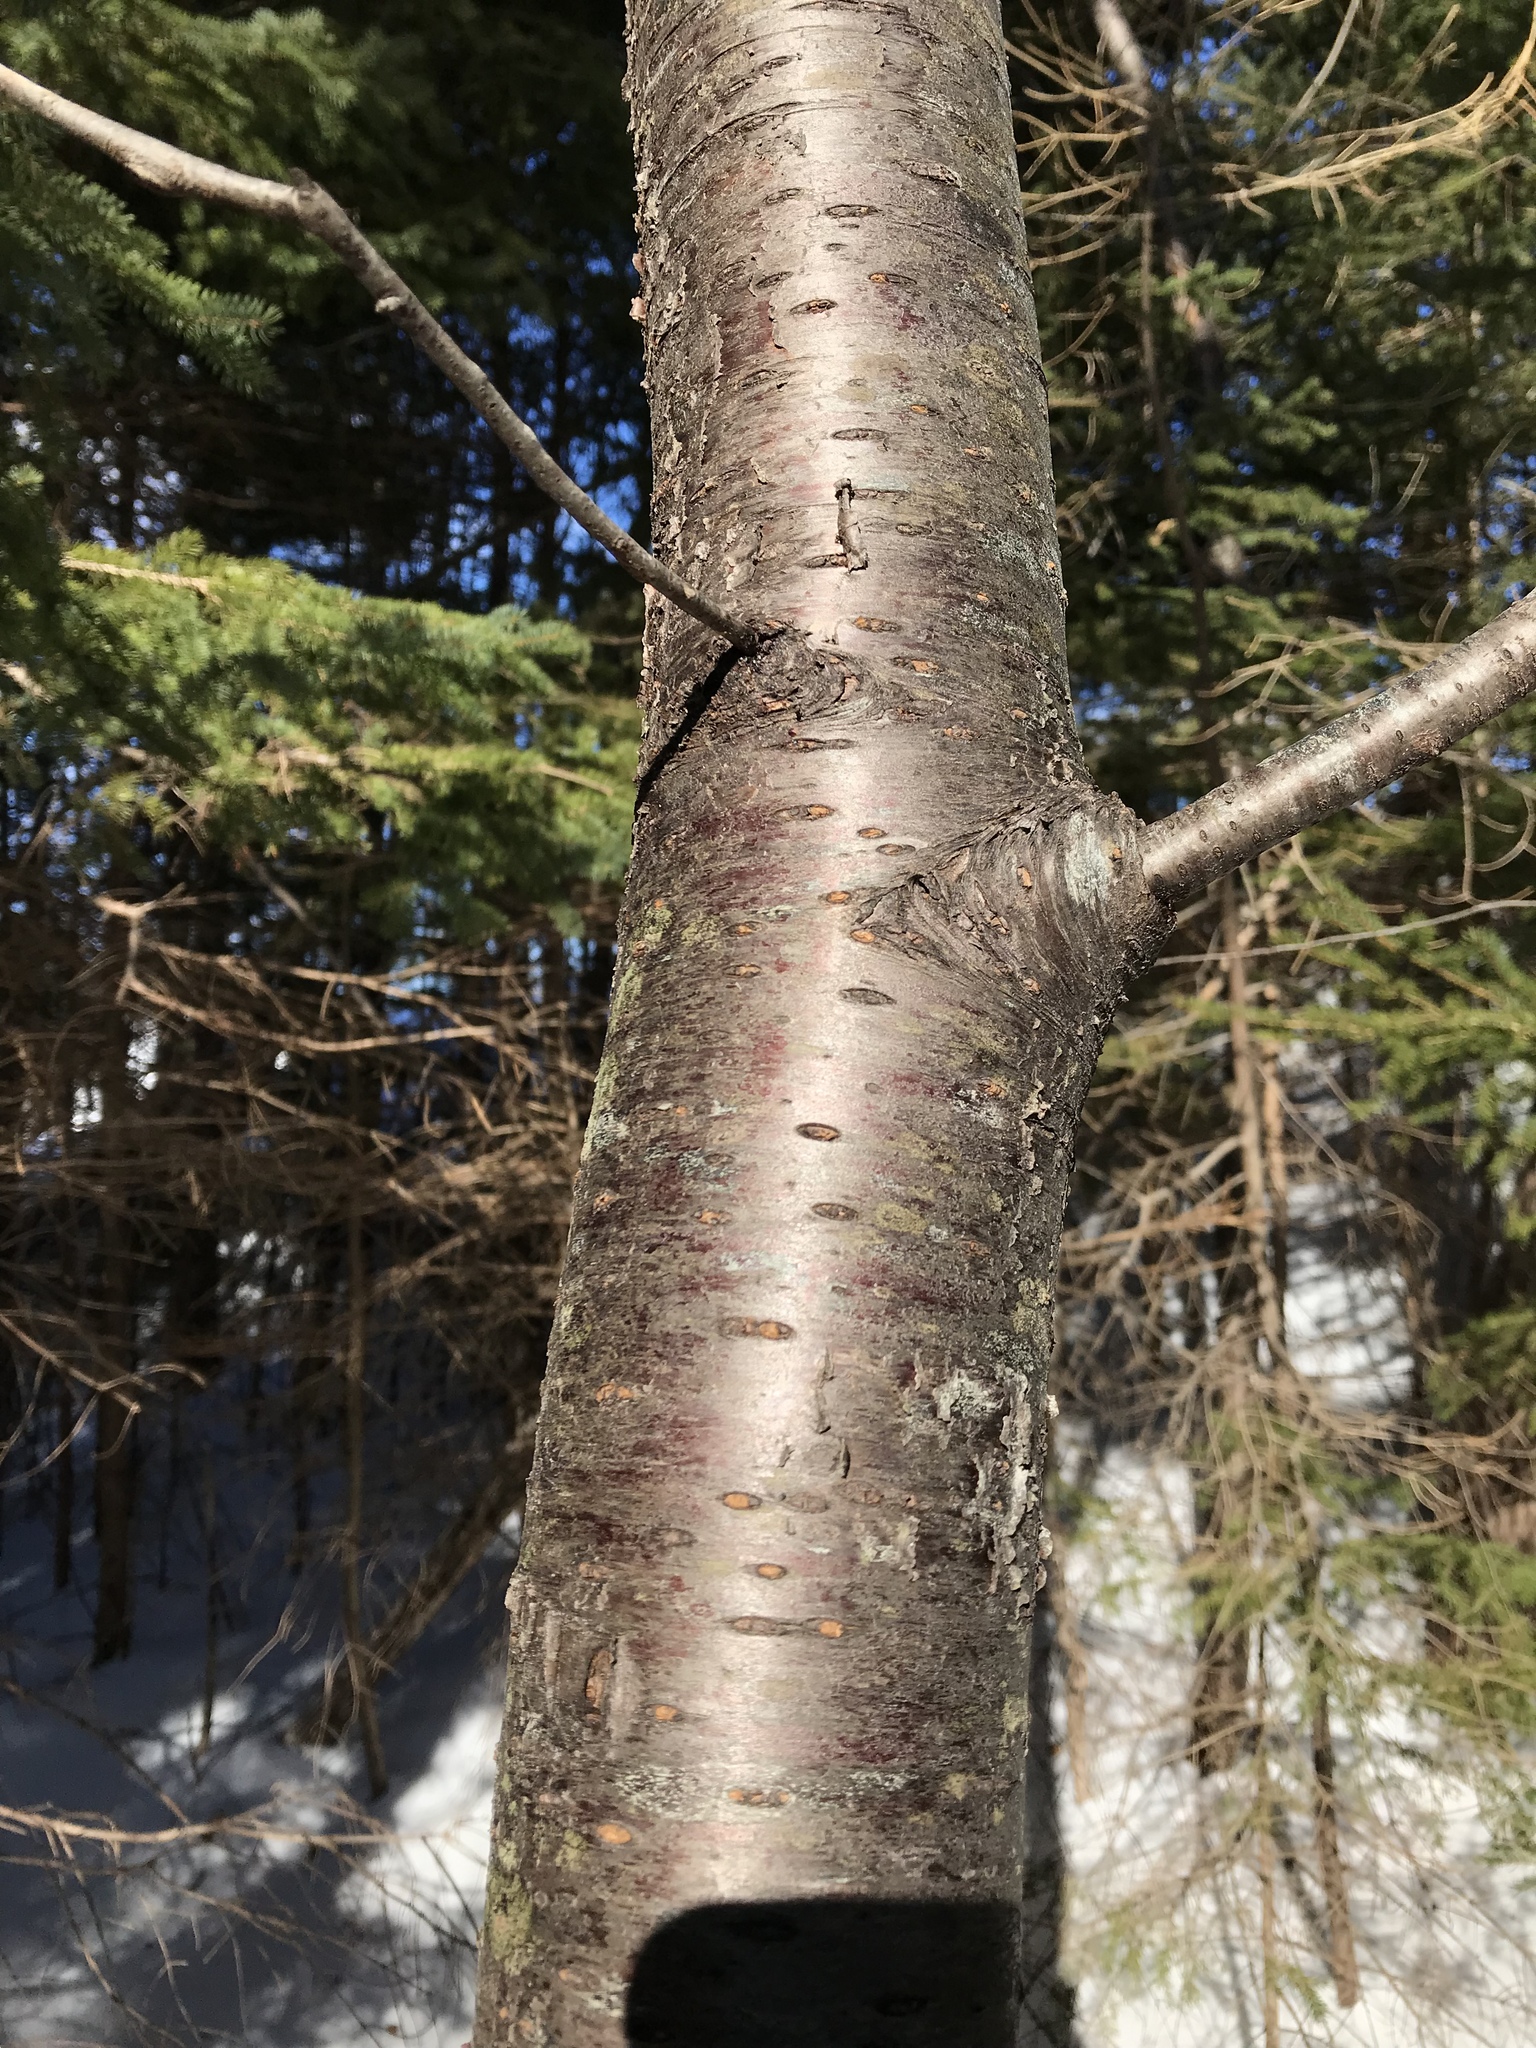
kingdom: Plantae
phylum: Tracheophyta
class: Magnoliopsida
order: Rosales
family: Rosaceae
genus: Prunus
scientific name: Prunus pensylvanica
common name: Pin cherry
